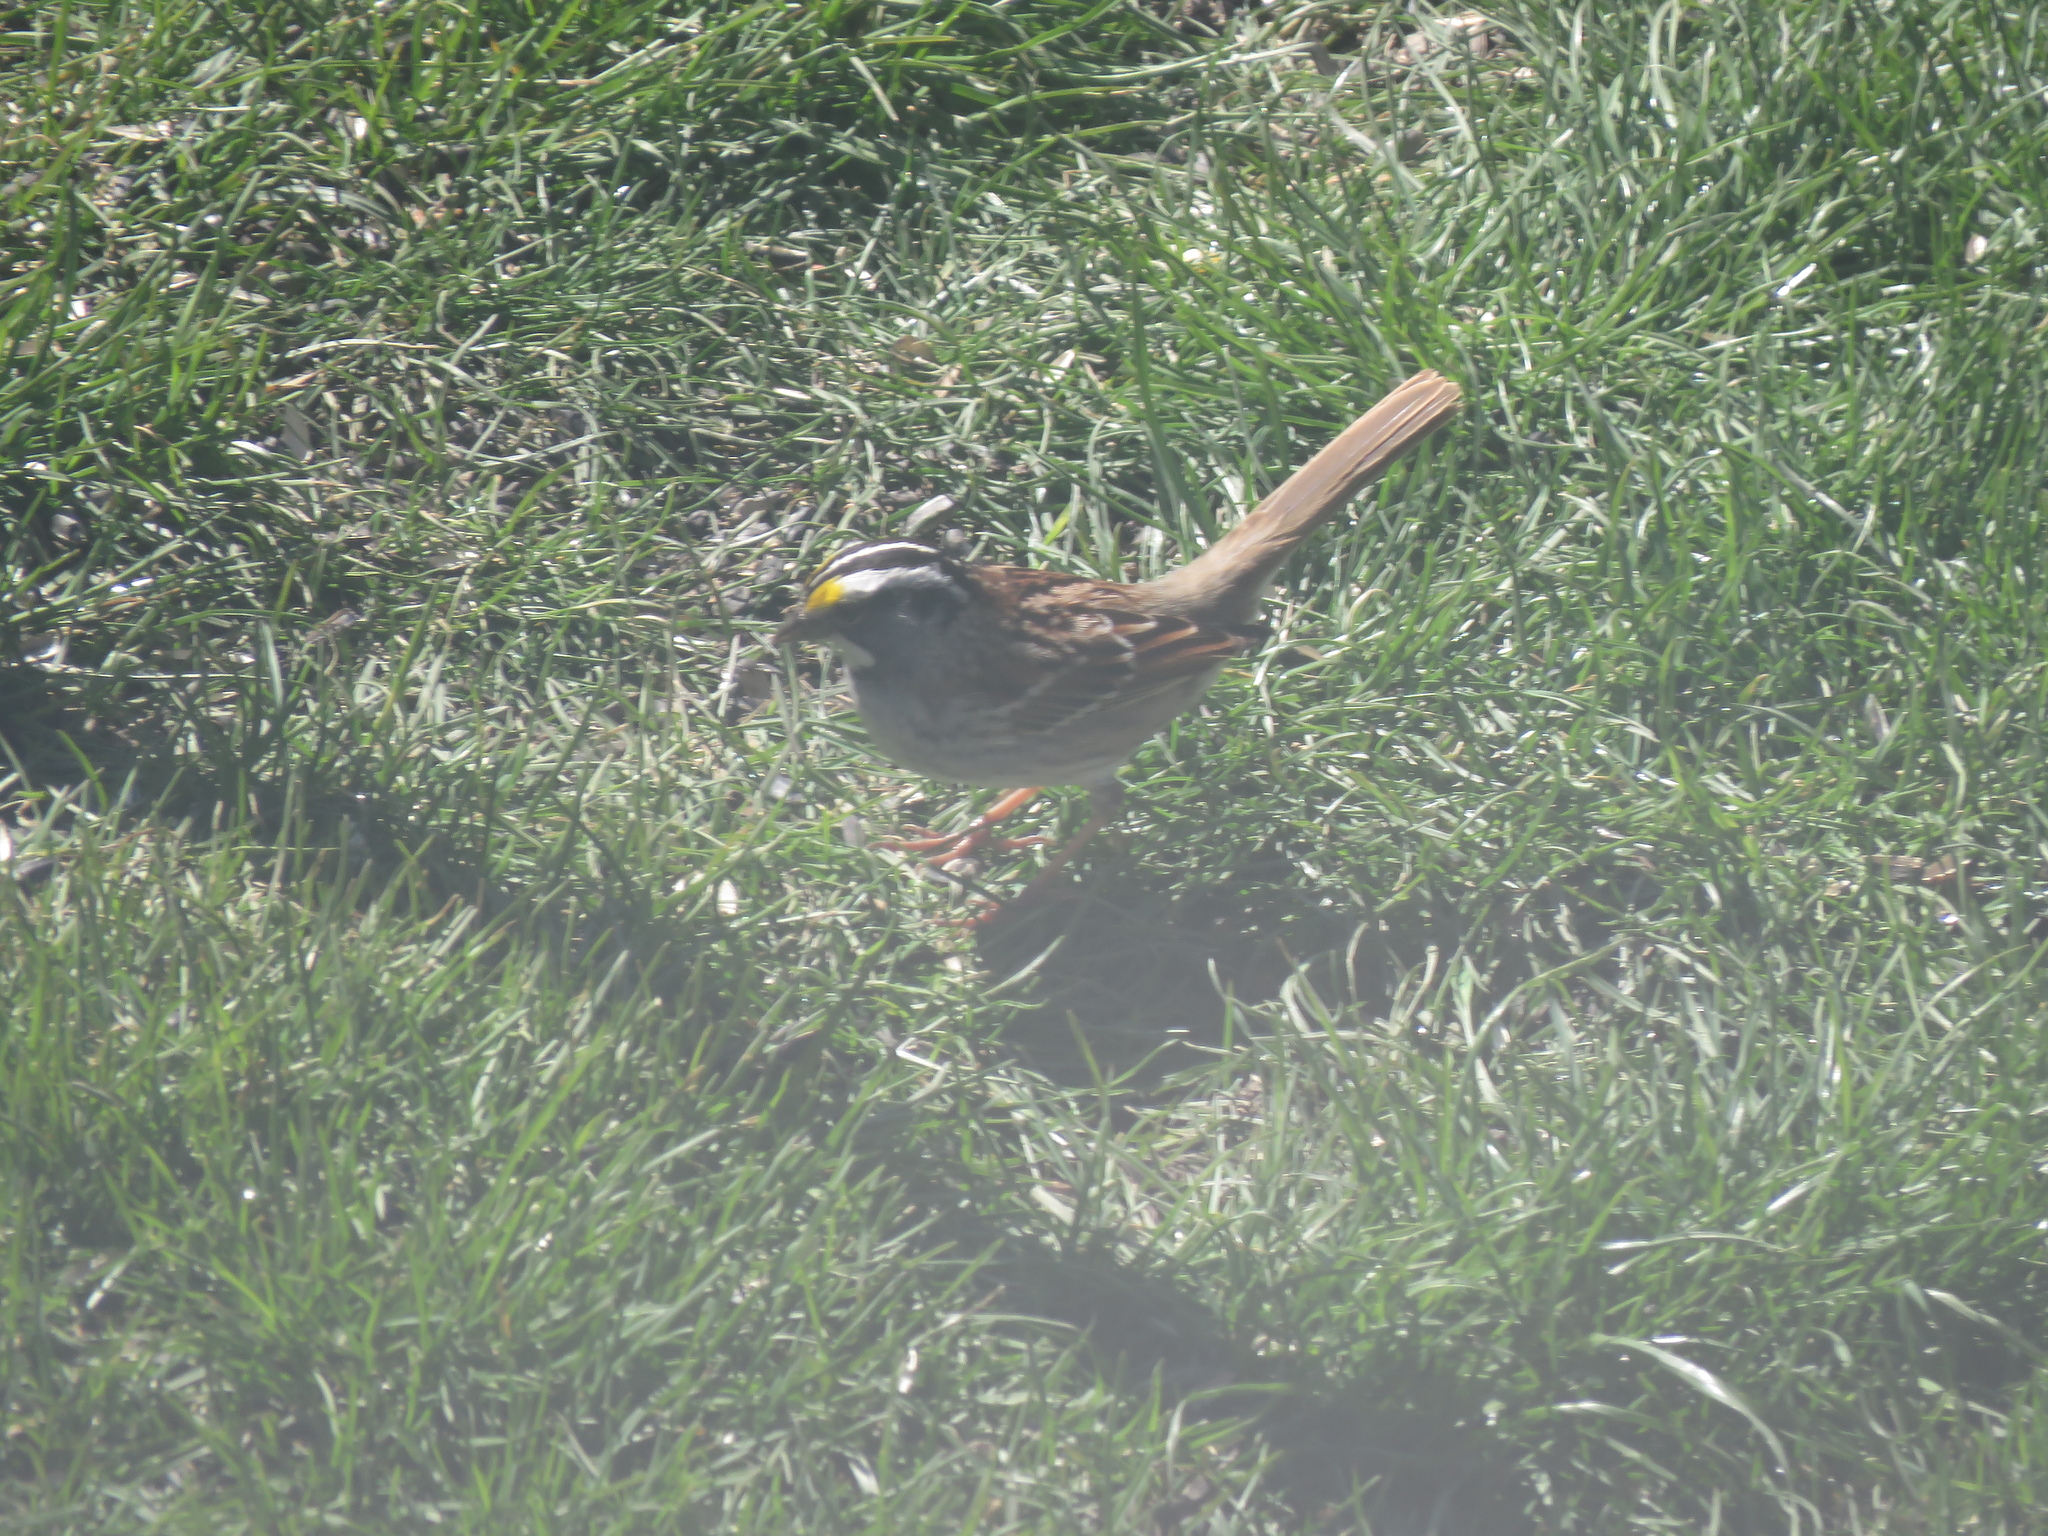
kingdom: Animalia
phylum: Chordata
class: Aves
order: Passeriformes
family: Passerellidae
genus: Zonotrichia
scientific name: Zonotrichia albicollis
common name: White-throated sparrow
